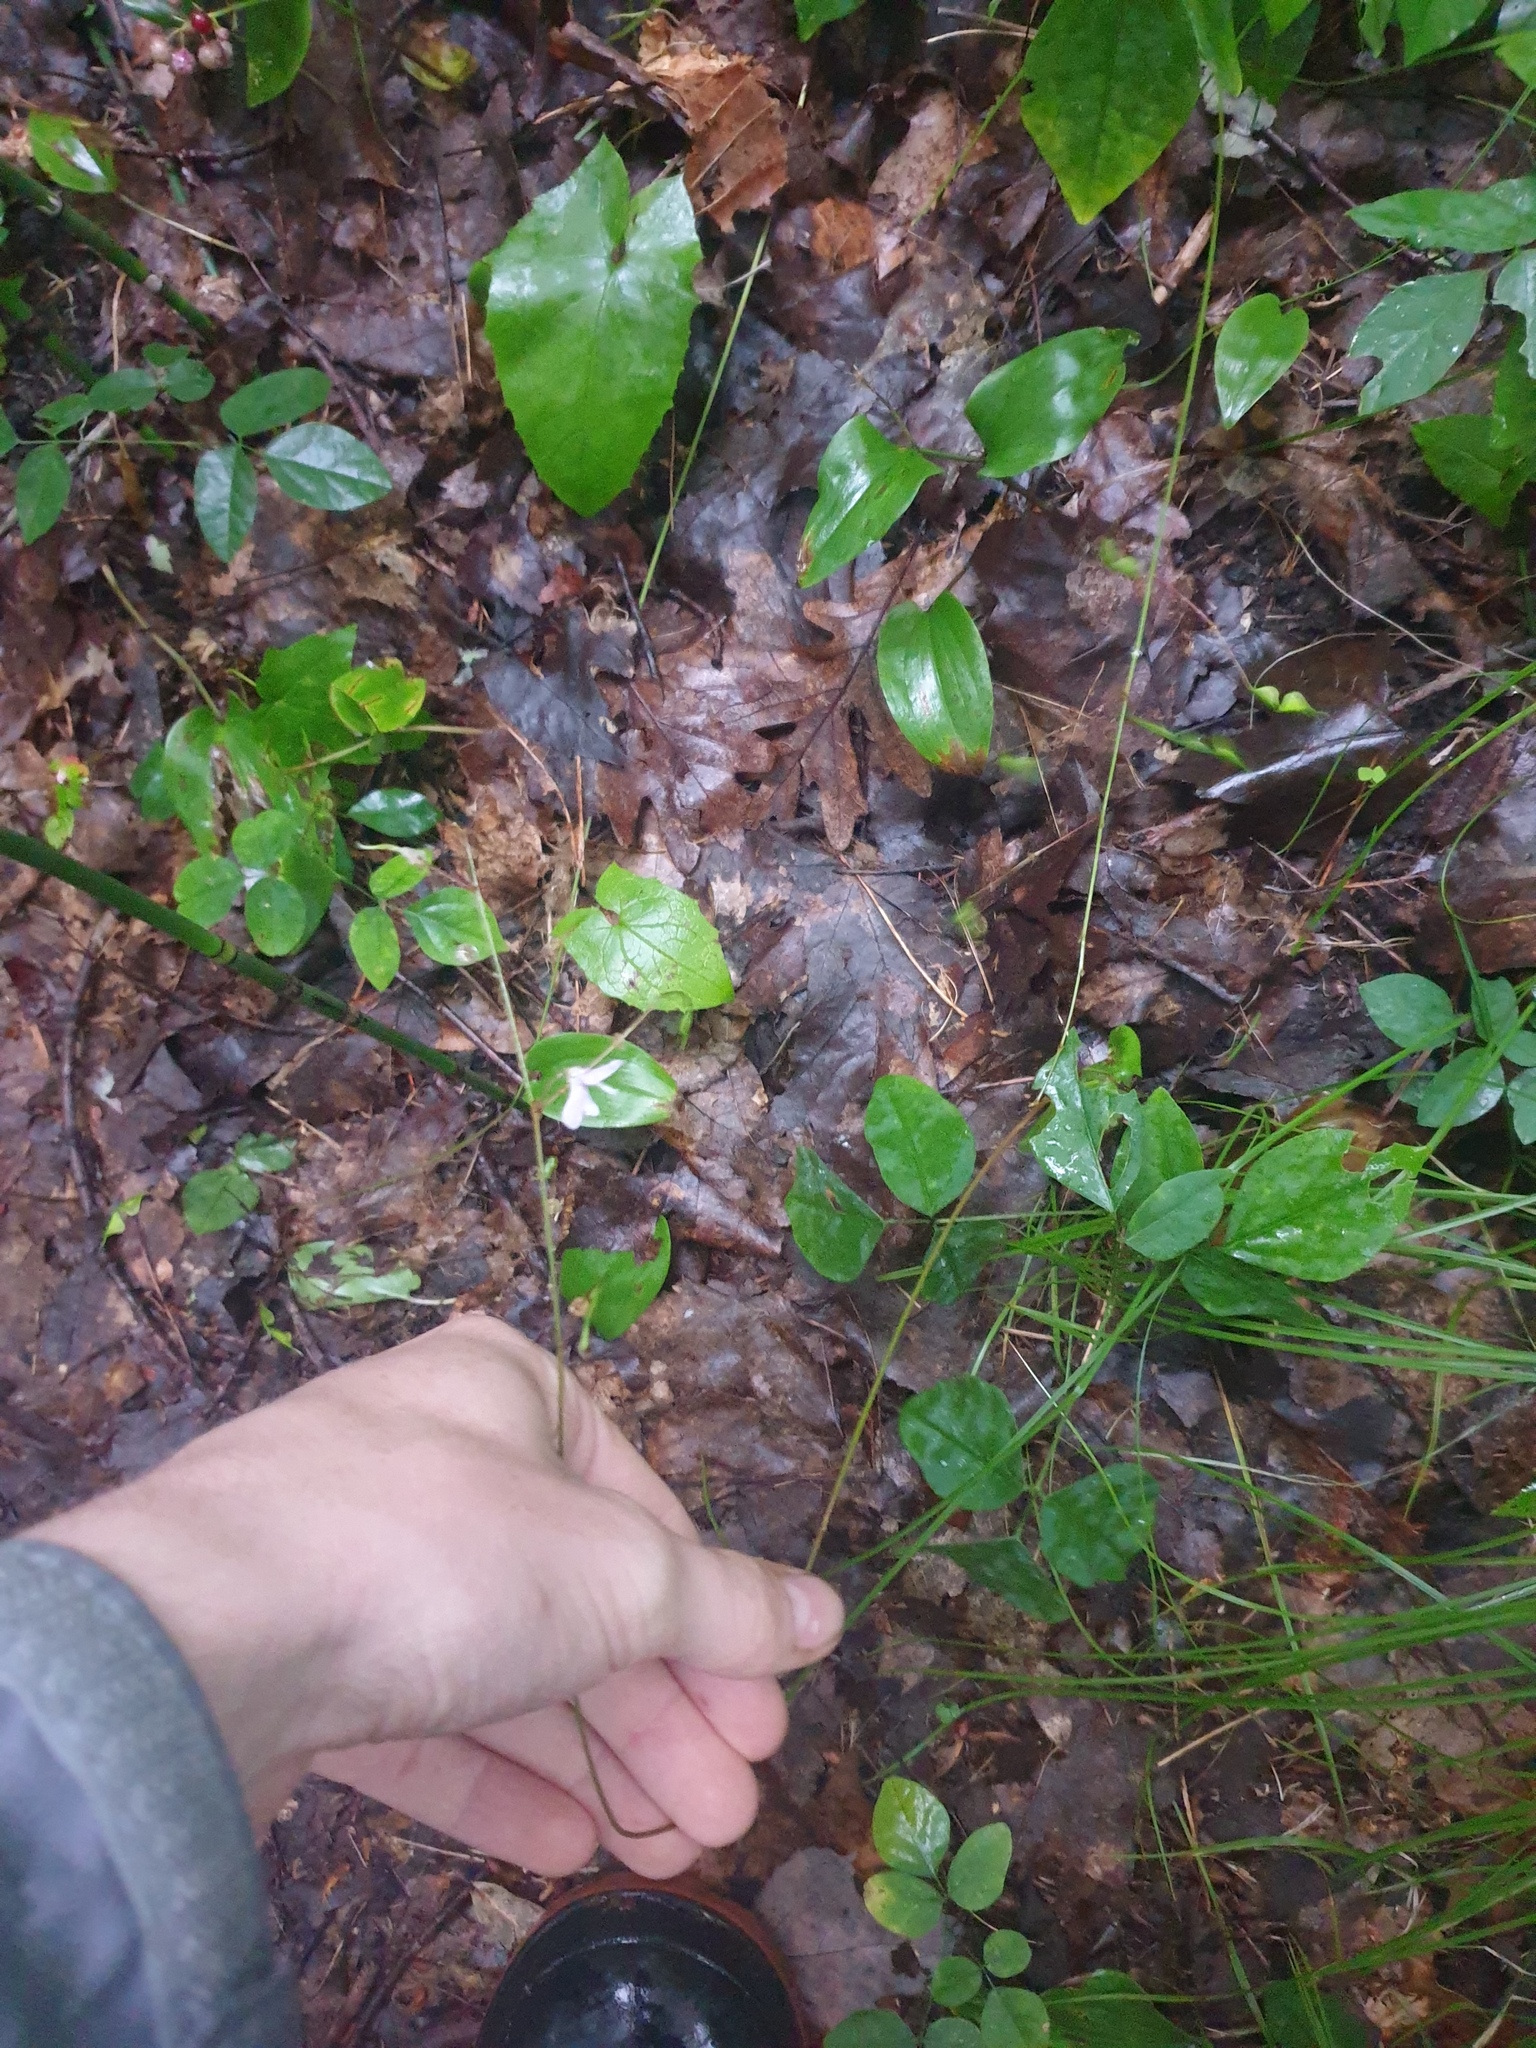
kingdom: Plantae
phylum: Tracheophyta
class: Magnoliopsida
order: Fabales
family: Fabaceae
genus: Hylodesmum
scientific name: Hylodesmum nudiflorum
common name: Bare-stemmed tick-trefoil
